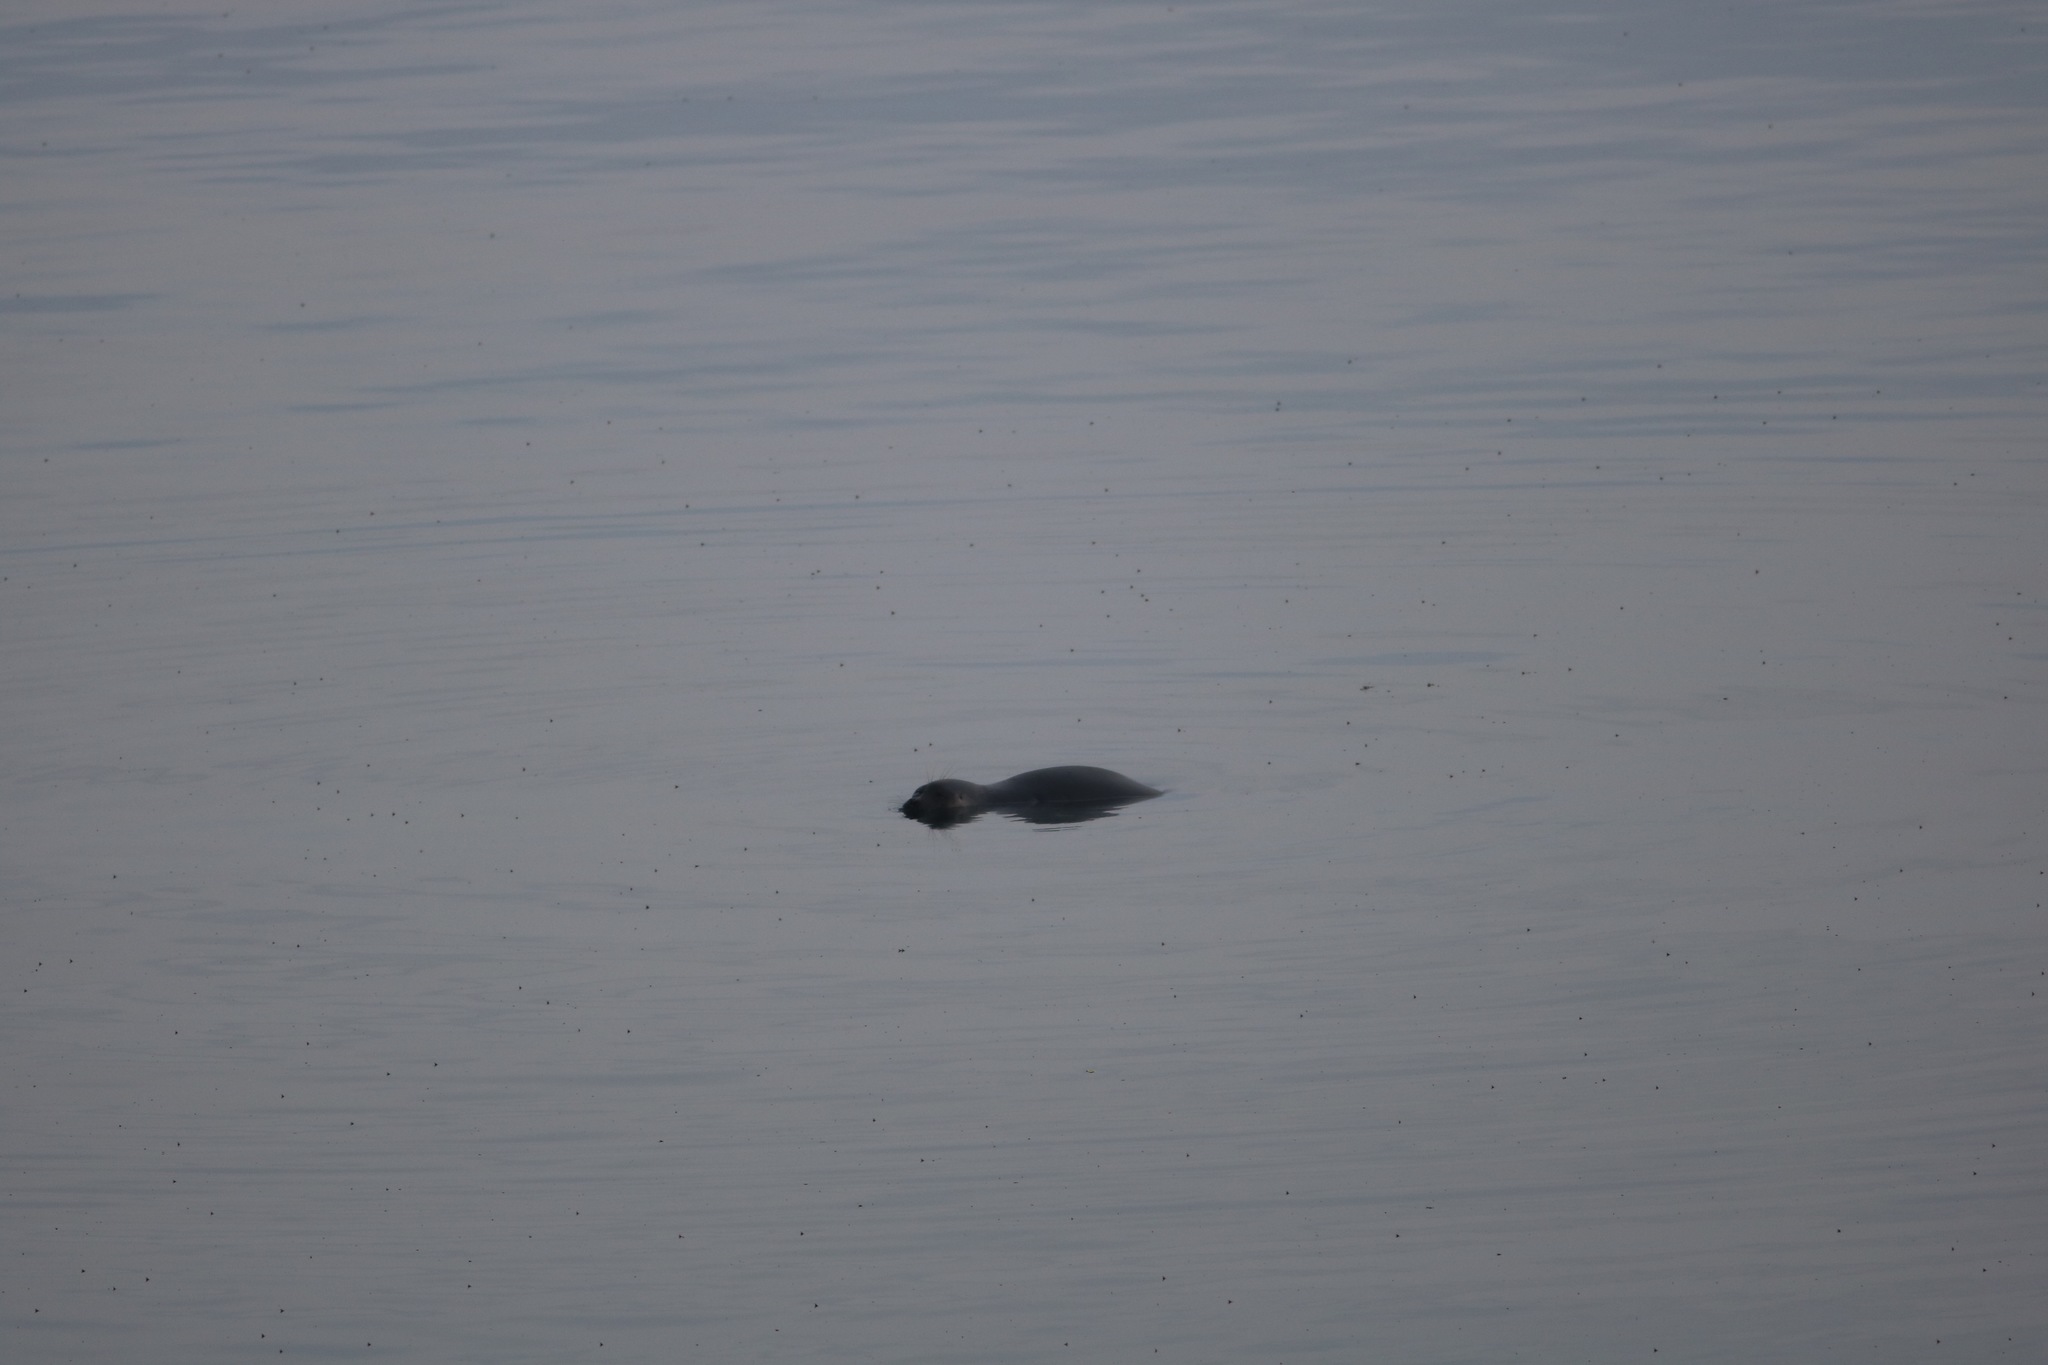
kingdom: Animalia
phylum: Chordata
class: Mammalia
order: Carnivora
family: Phocidae
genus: Pusa
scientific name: Pusa sibirica
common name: Baikal seal
